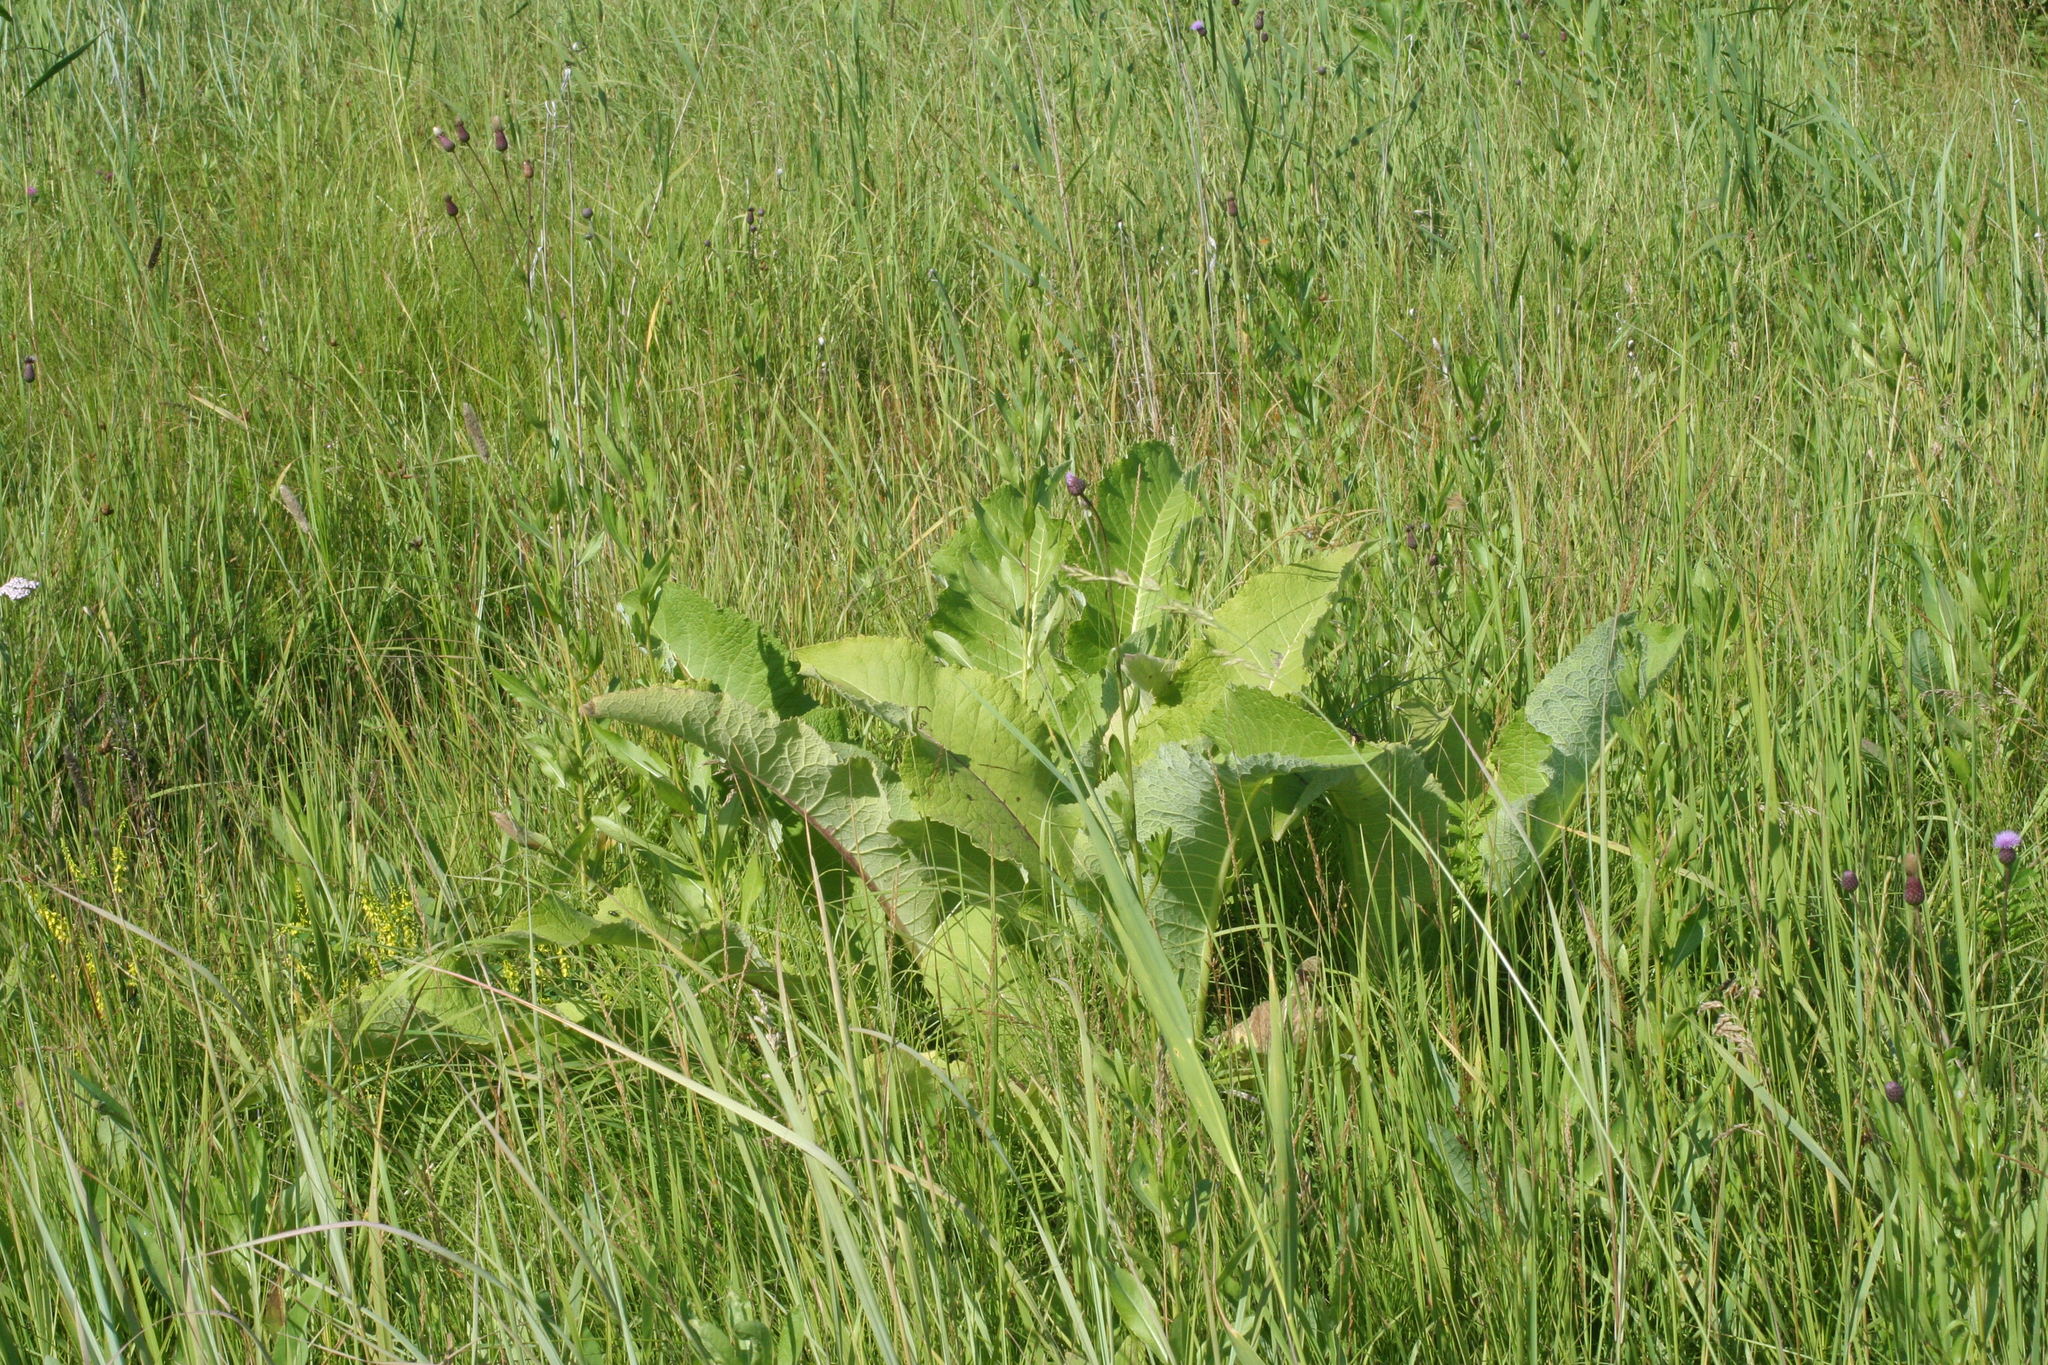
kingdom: Plantae
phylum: Tracheophyta
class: Magnoliopsida
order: Asterales
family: Asteraceae
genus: Inula
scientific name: Inula helenium
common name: Elecampane
